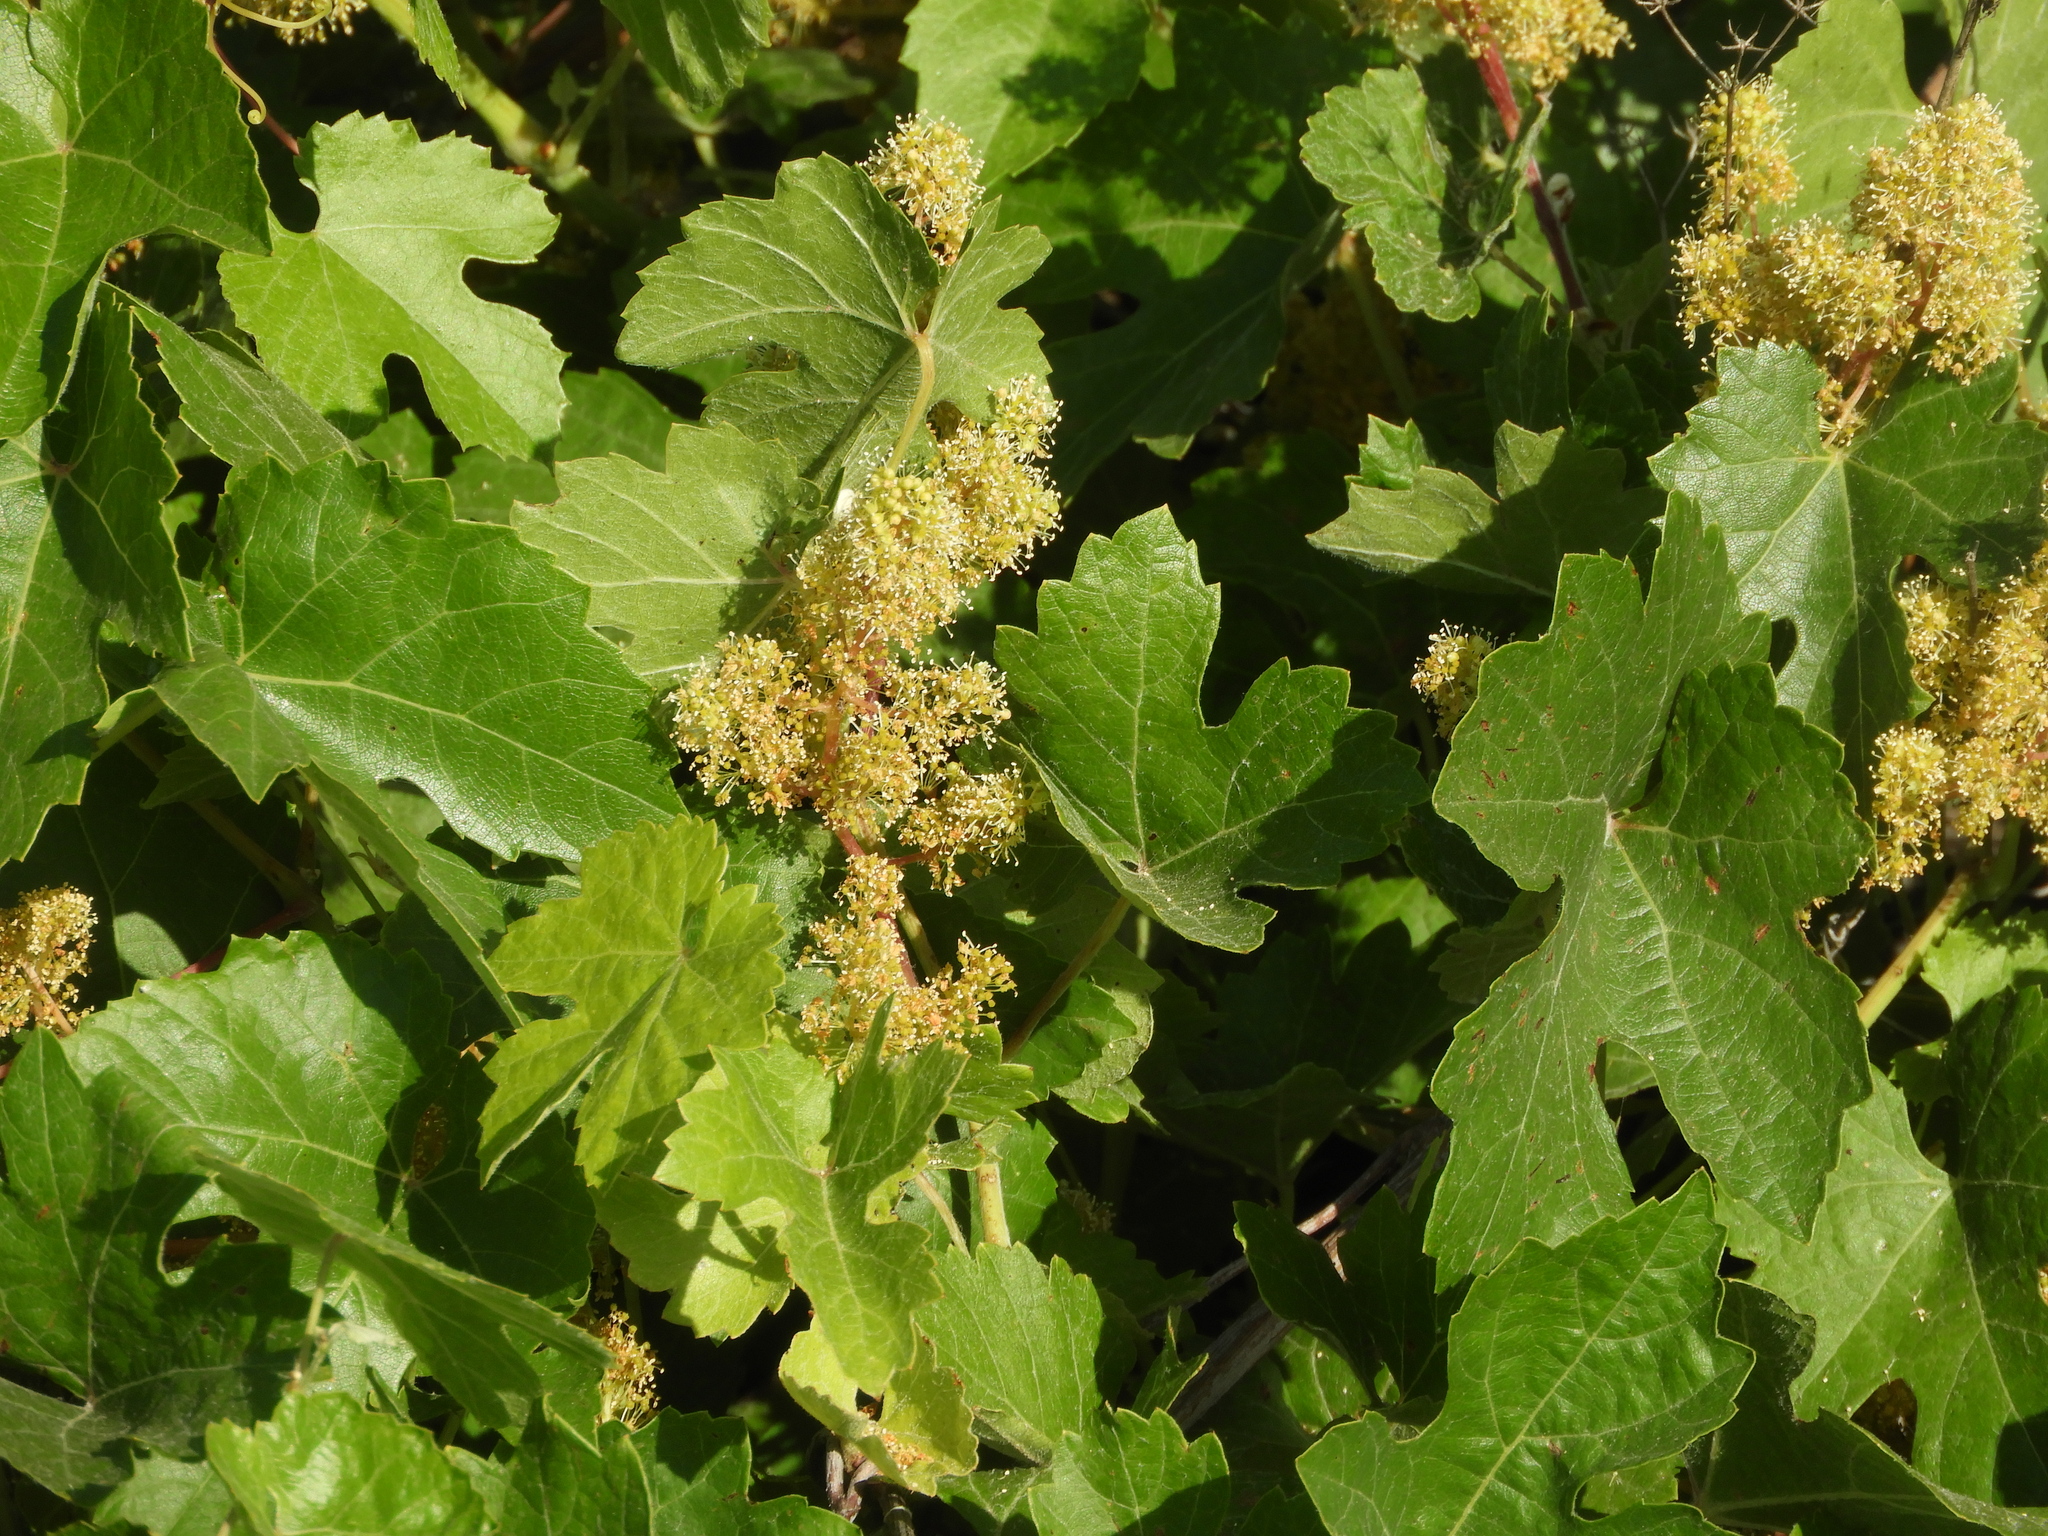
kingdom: Plantae
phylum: Tracheophyta
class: Magnoliopsida
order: Vitales
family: Vitaceae
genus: Vitis
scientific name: Vitis californica
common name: California wild grape
